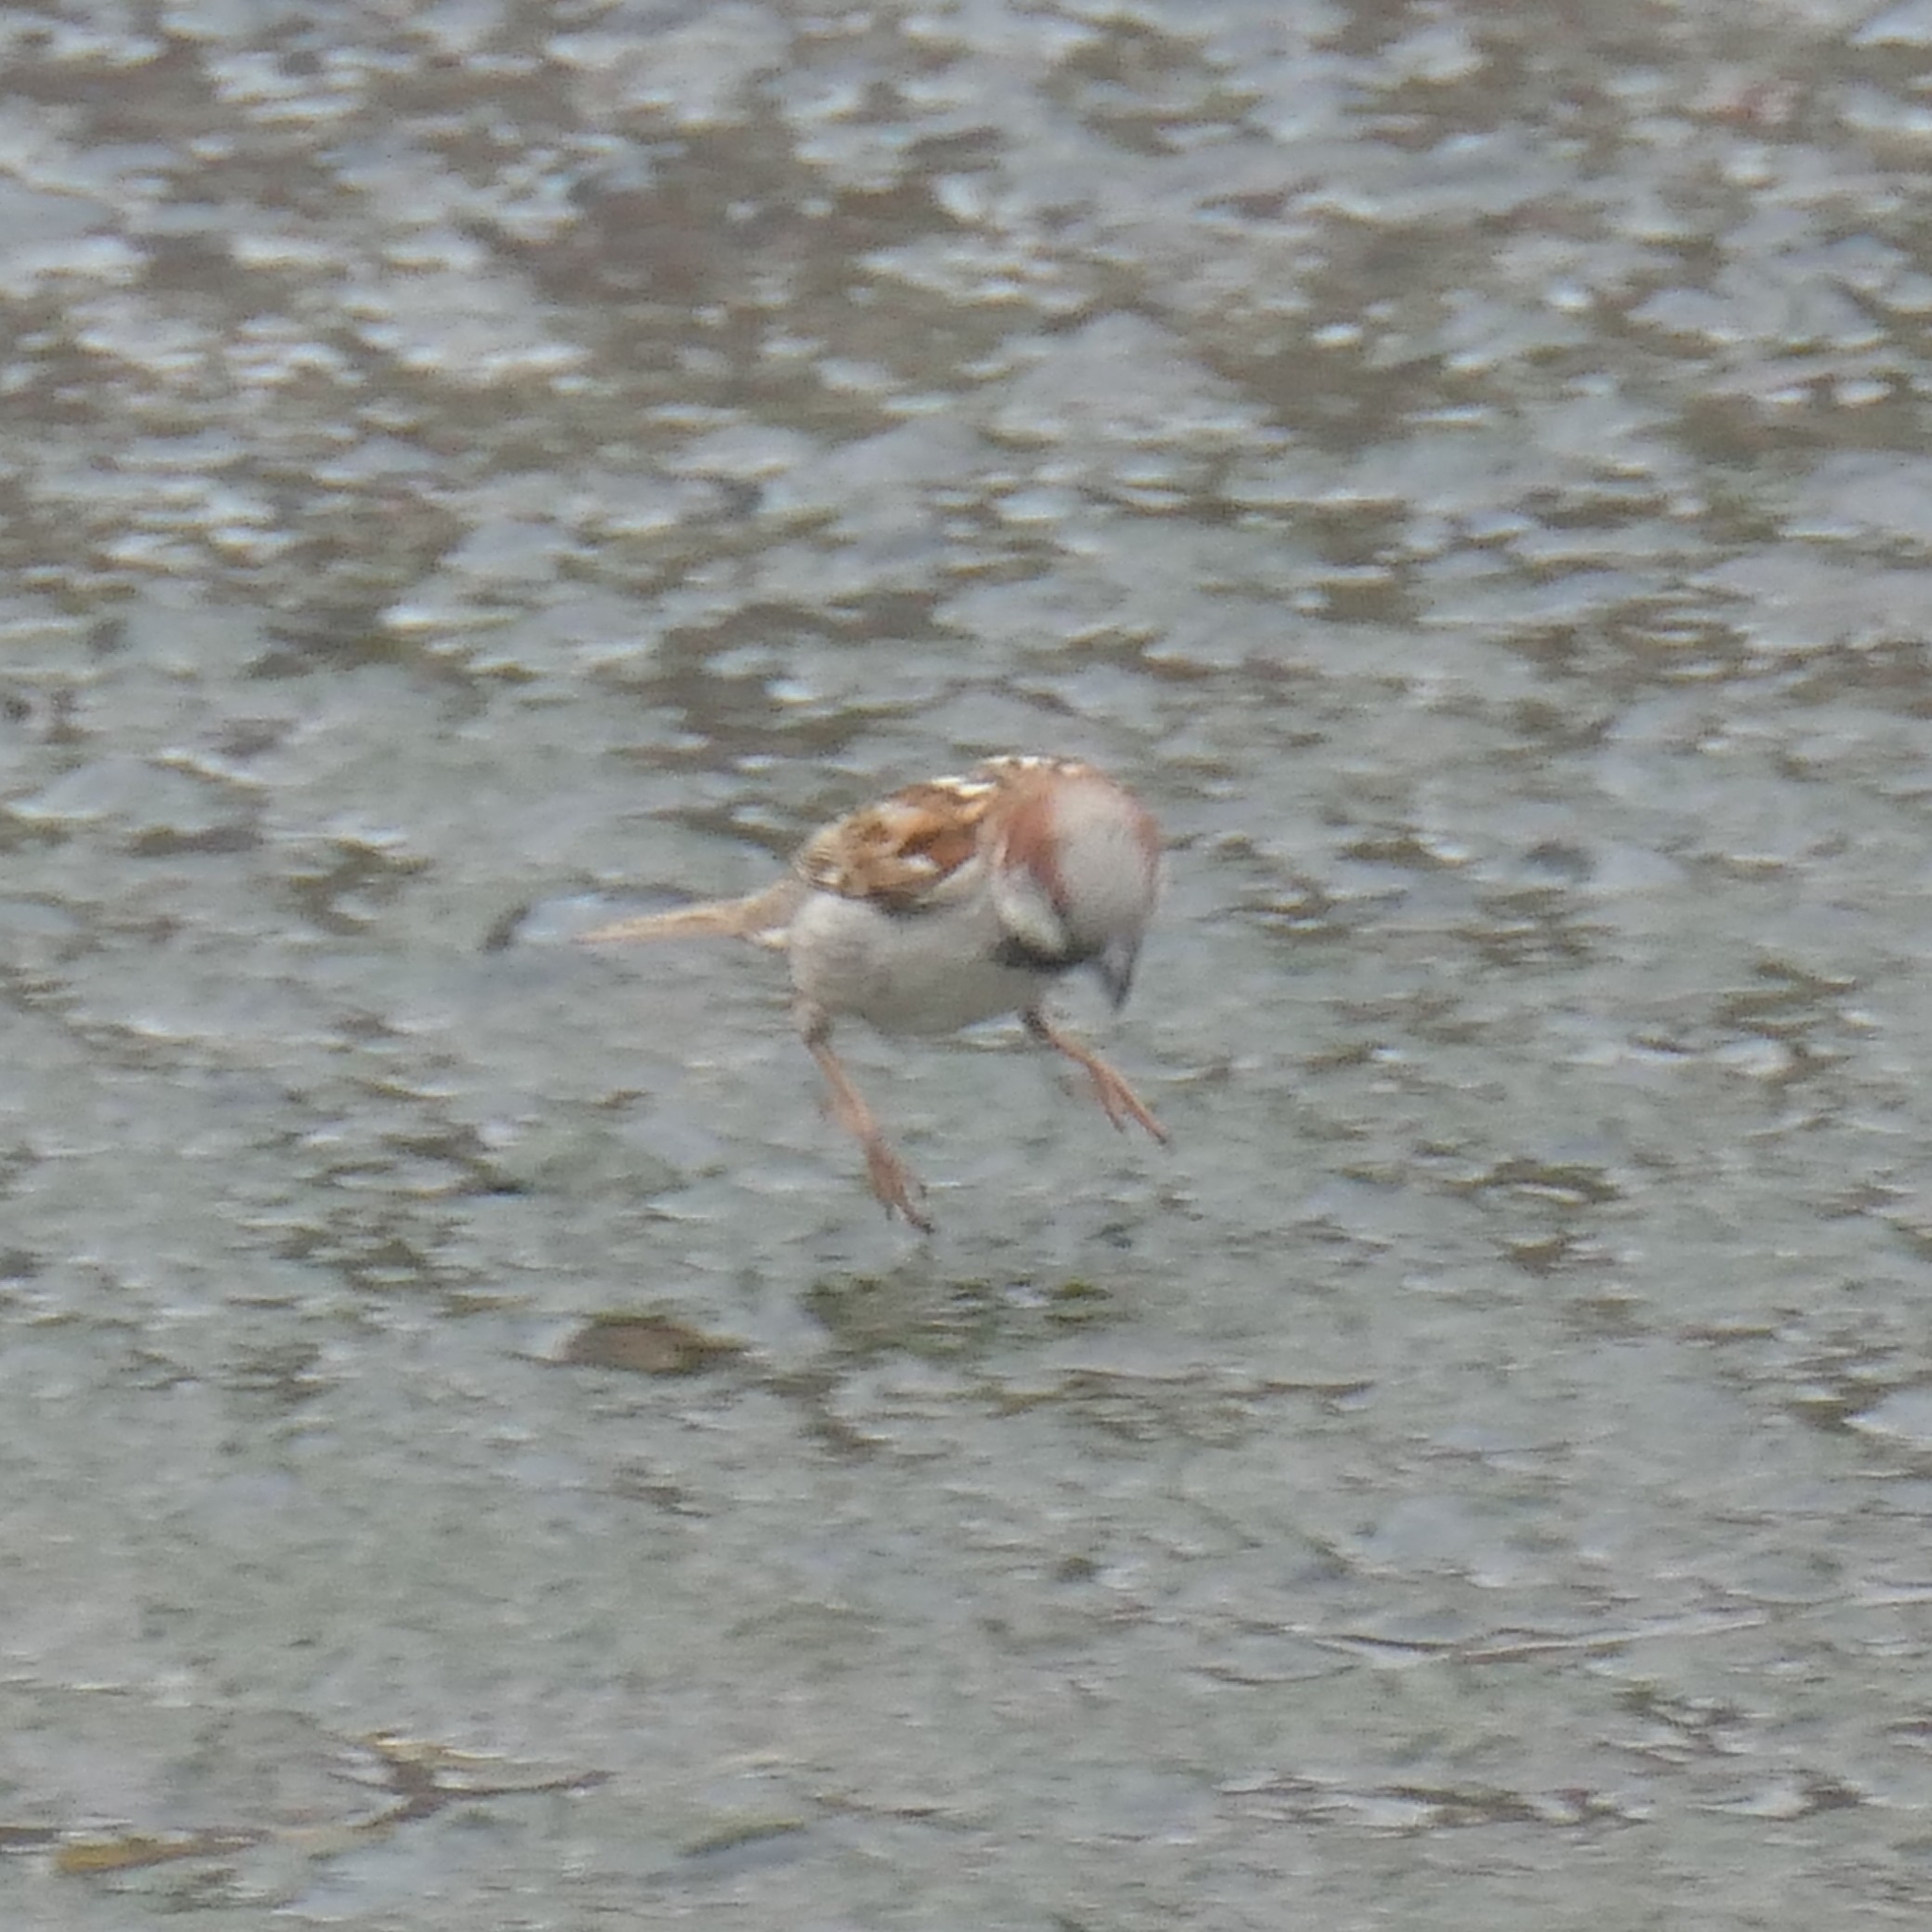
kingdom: Animalia
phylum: Chordata
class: Aves
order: Passeriformes
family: Passeridae
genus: Passer
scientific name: Passer domesticus
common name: House sparrow
